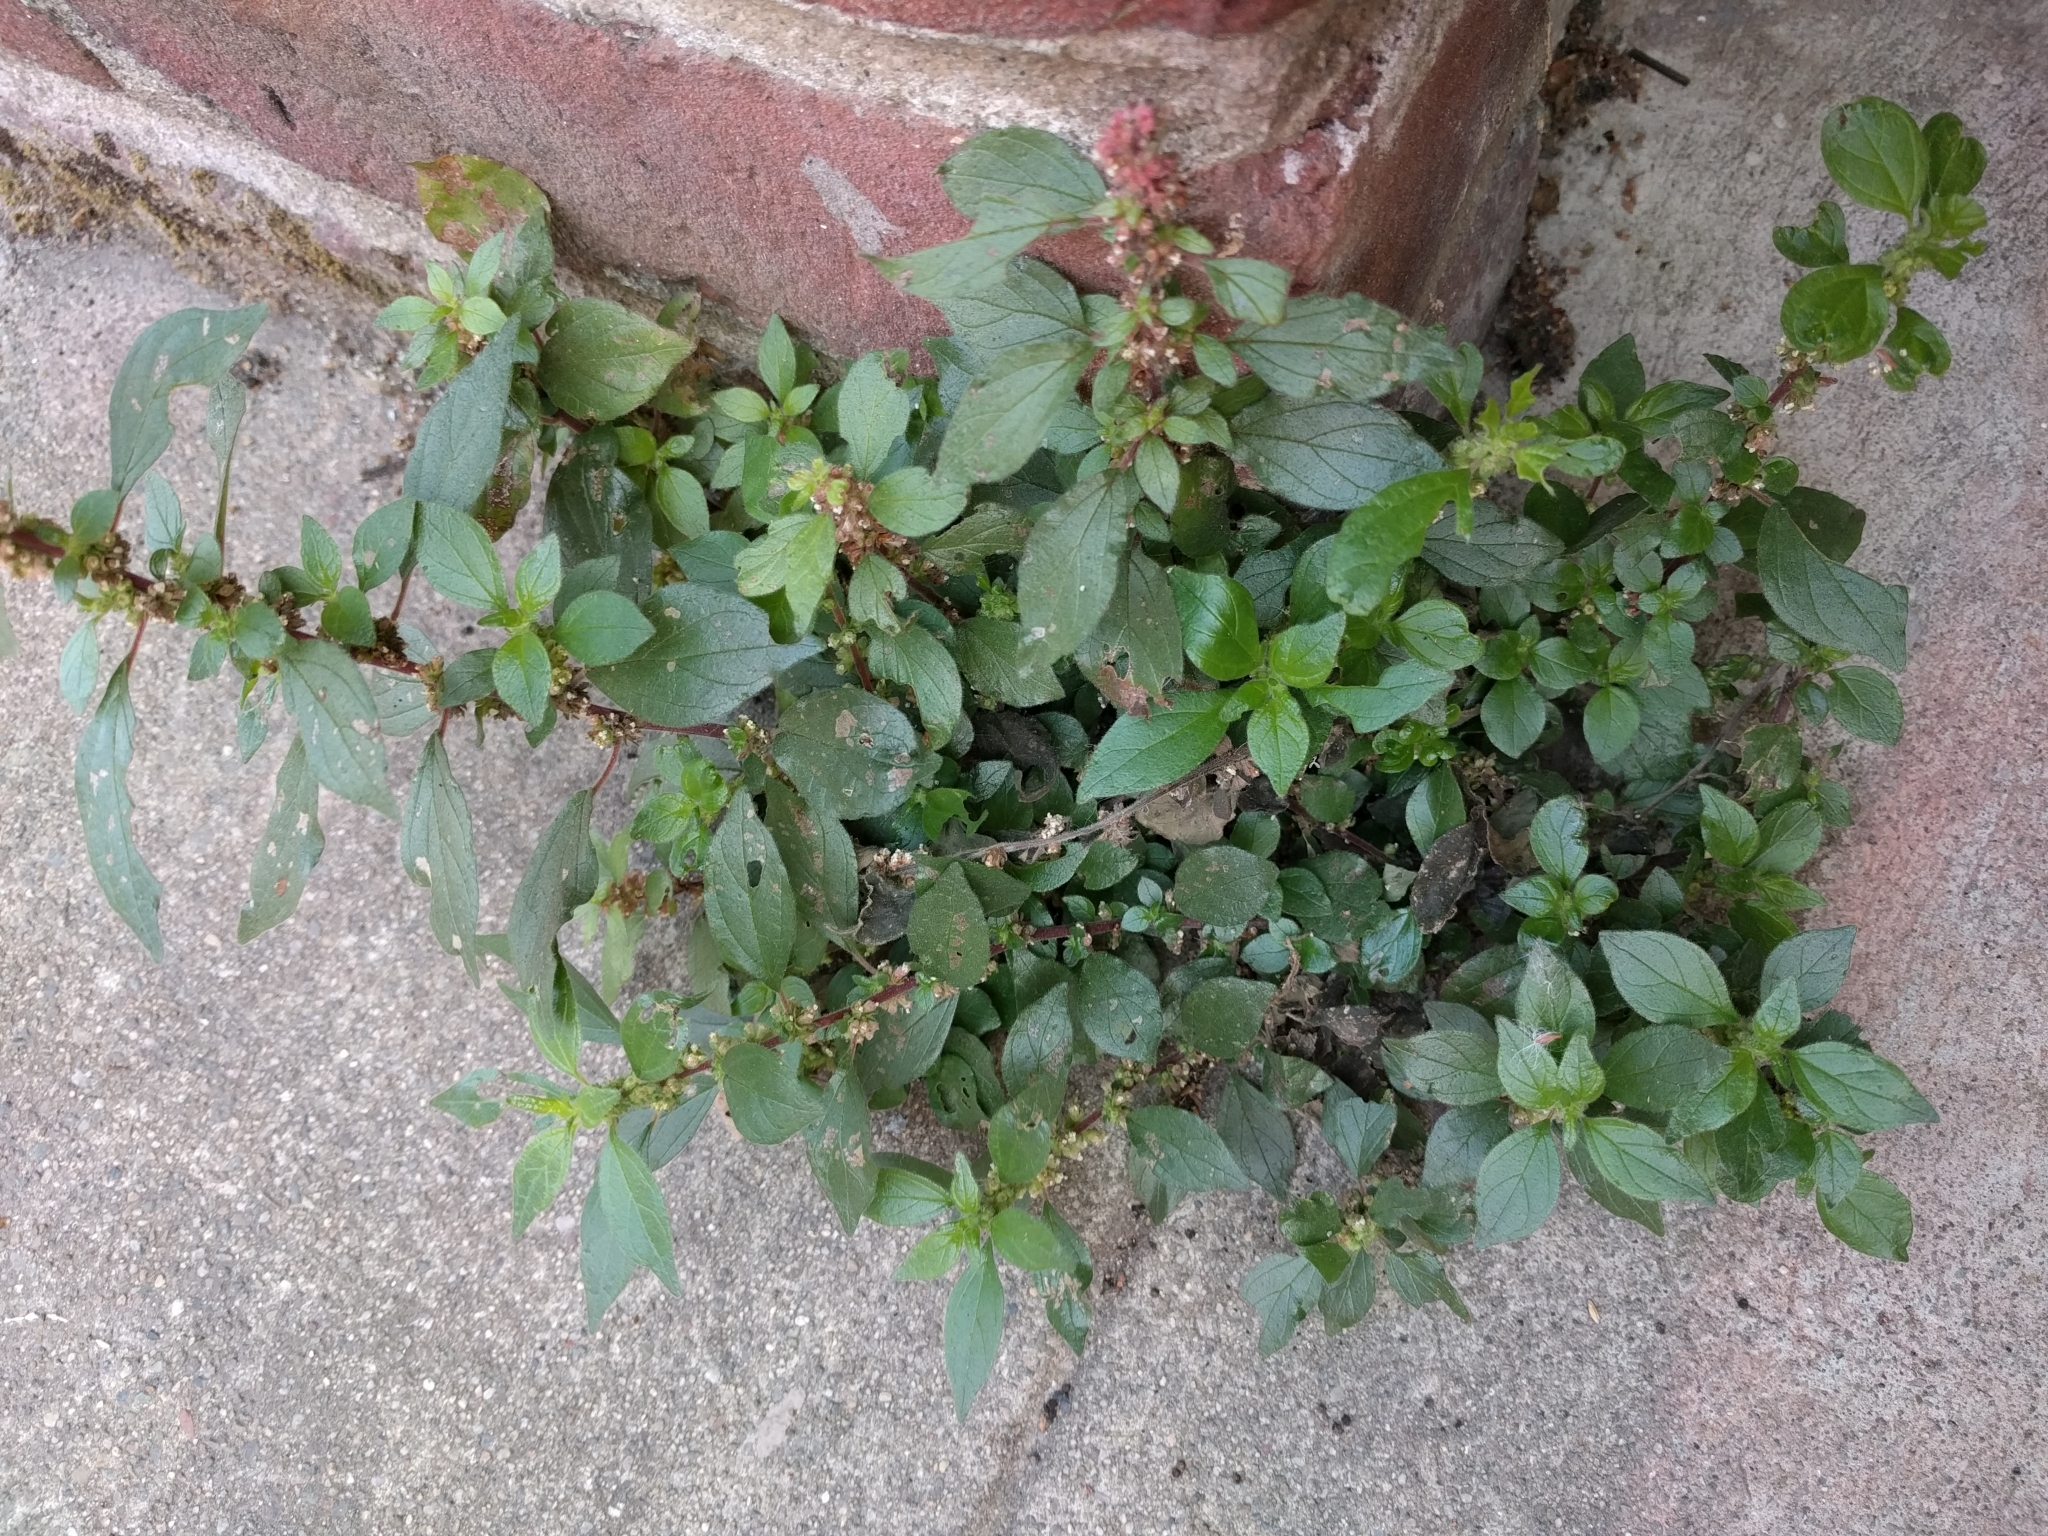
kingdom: Plantae
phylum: Tracheophyta
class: Magnoliopsida
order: Rosales
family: Urticaceae
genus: Parietaria
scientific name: Parietaria judaica
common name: Pellitory-of-the-wall
